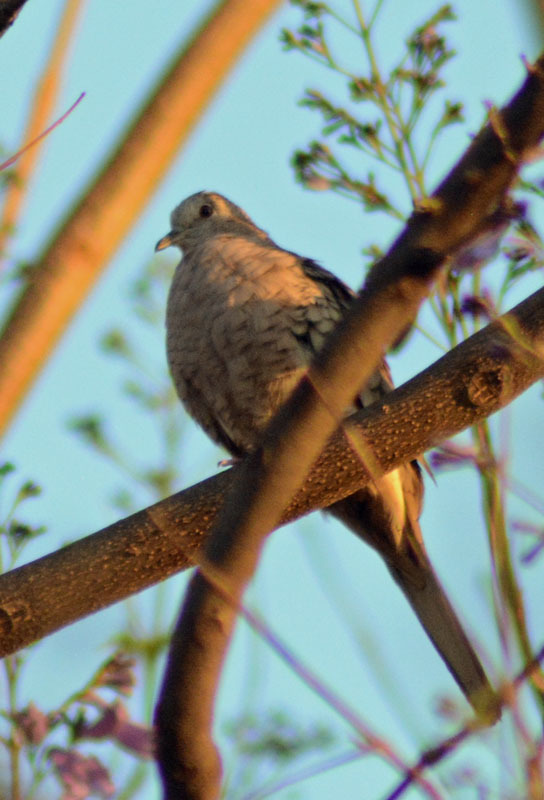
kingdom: Animalia
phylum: Chordata
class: Aves
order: Columbiformes
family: Columbidae
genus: Columbina
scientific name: Columbina inca
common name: Inca dove
